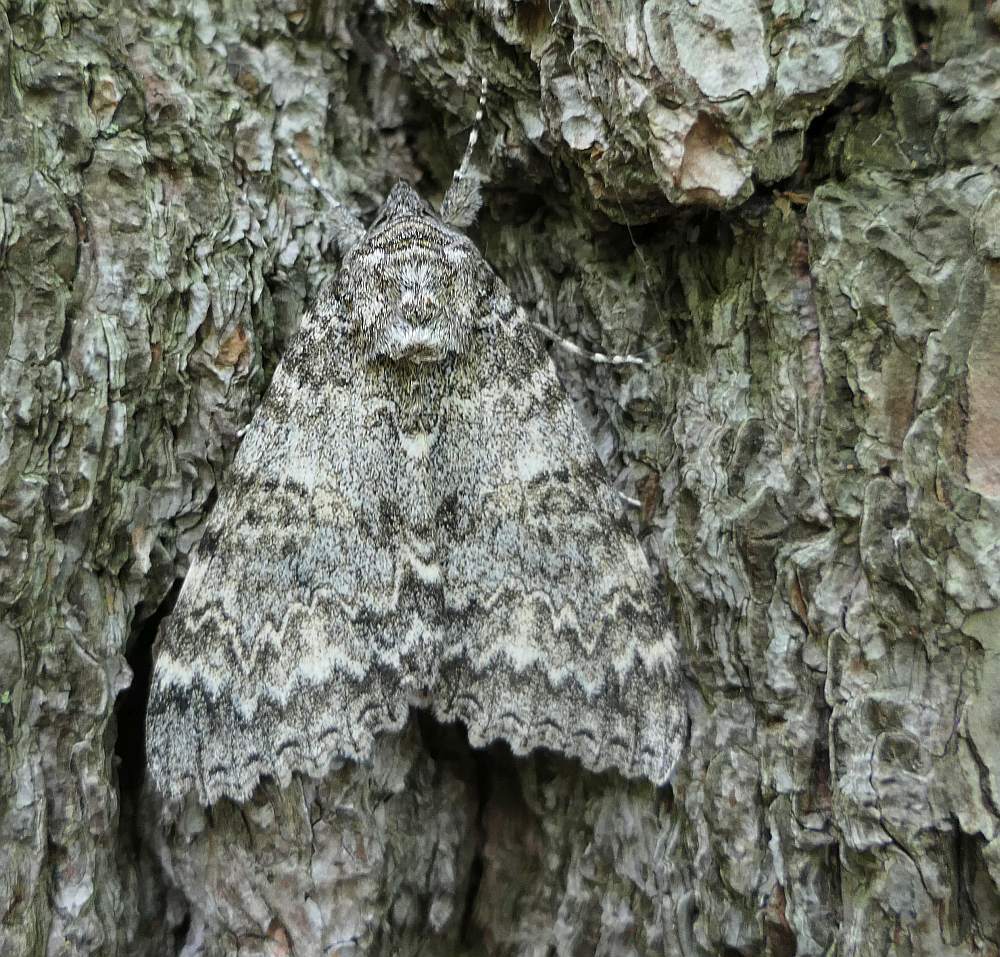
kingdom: Animalia
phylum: Arthropoda
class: Insecta
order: Lepidoptera
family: Erebidae
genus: Catocala
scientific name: Catocala unijuga
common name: Once-married underwing
